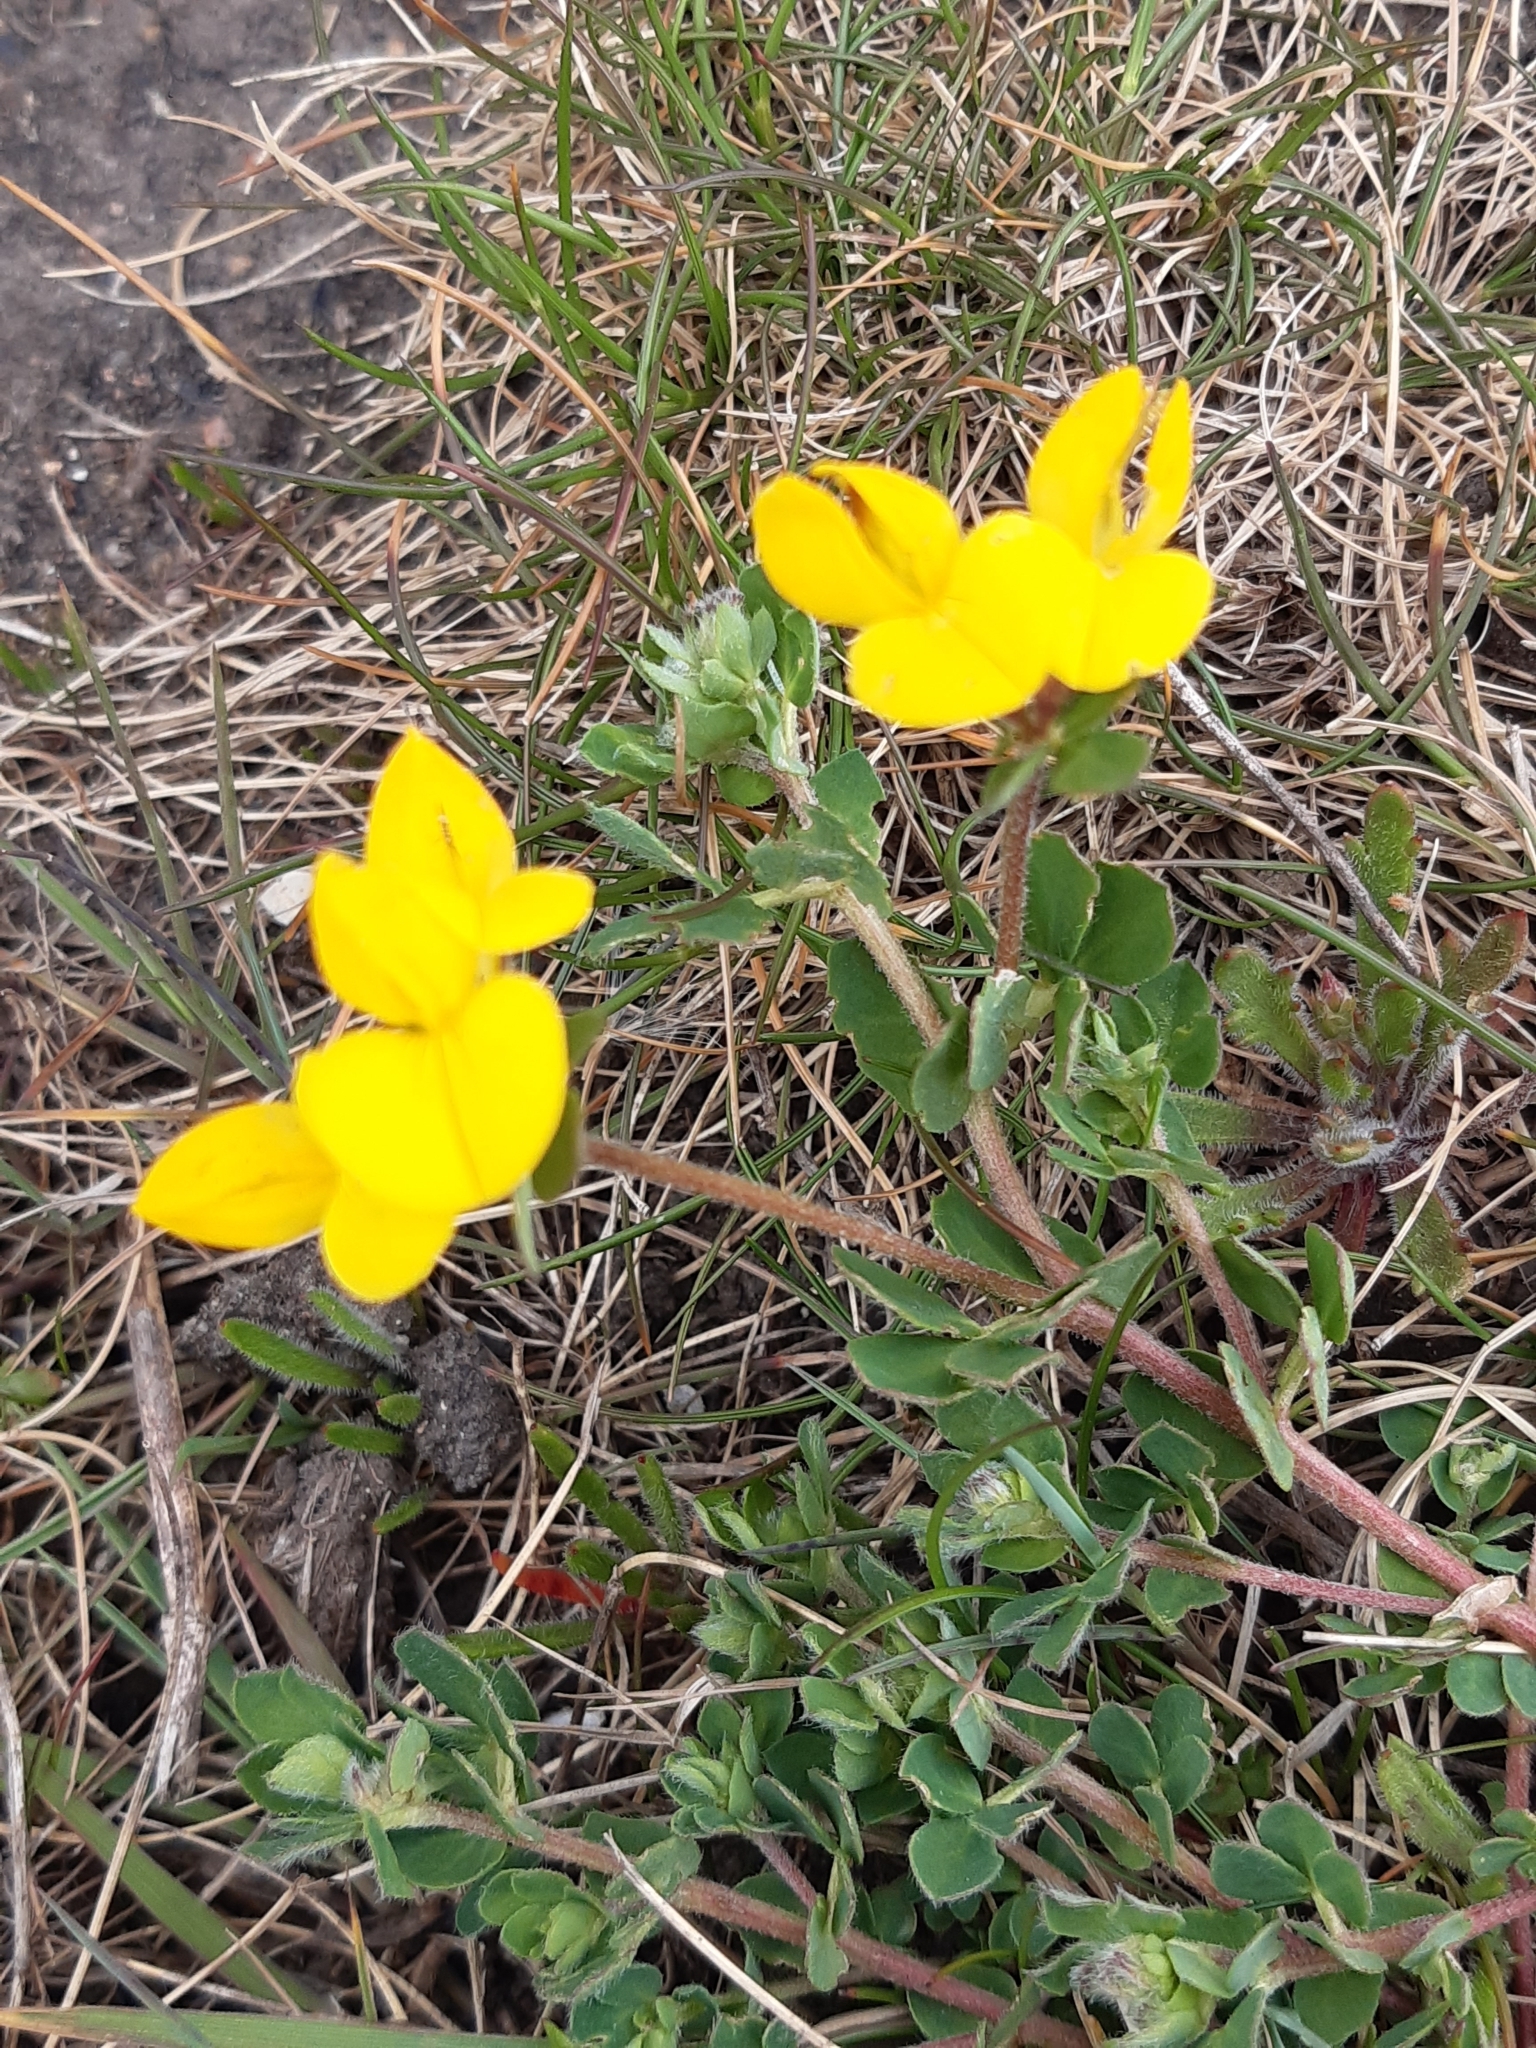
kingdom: Plantae
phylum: Tracheophyta
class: Magnoliopsida
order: Fabales
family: Fabaceae
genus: Lotus
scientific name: Lotus corniculatus
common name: Common bird's-foot-trefoil
